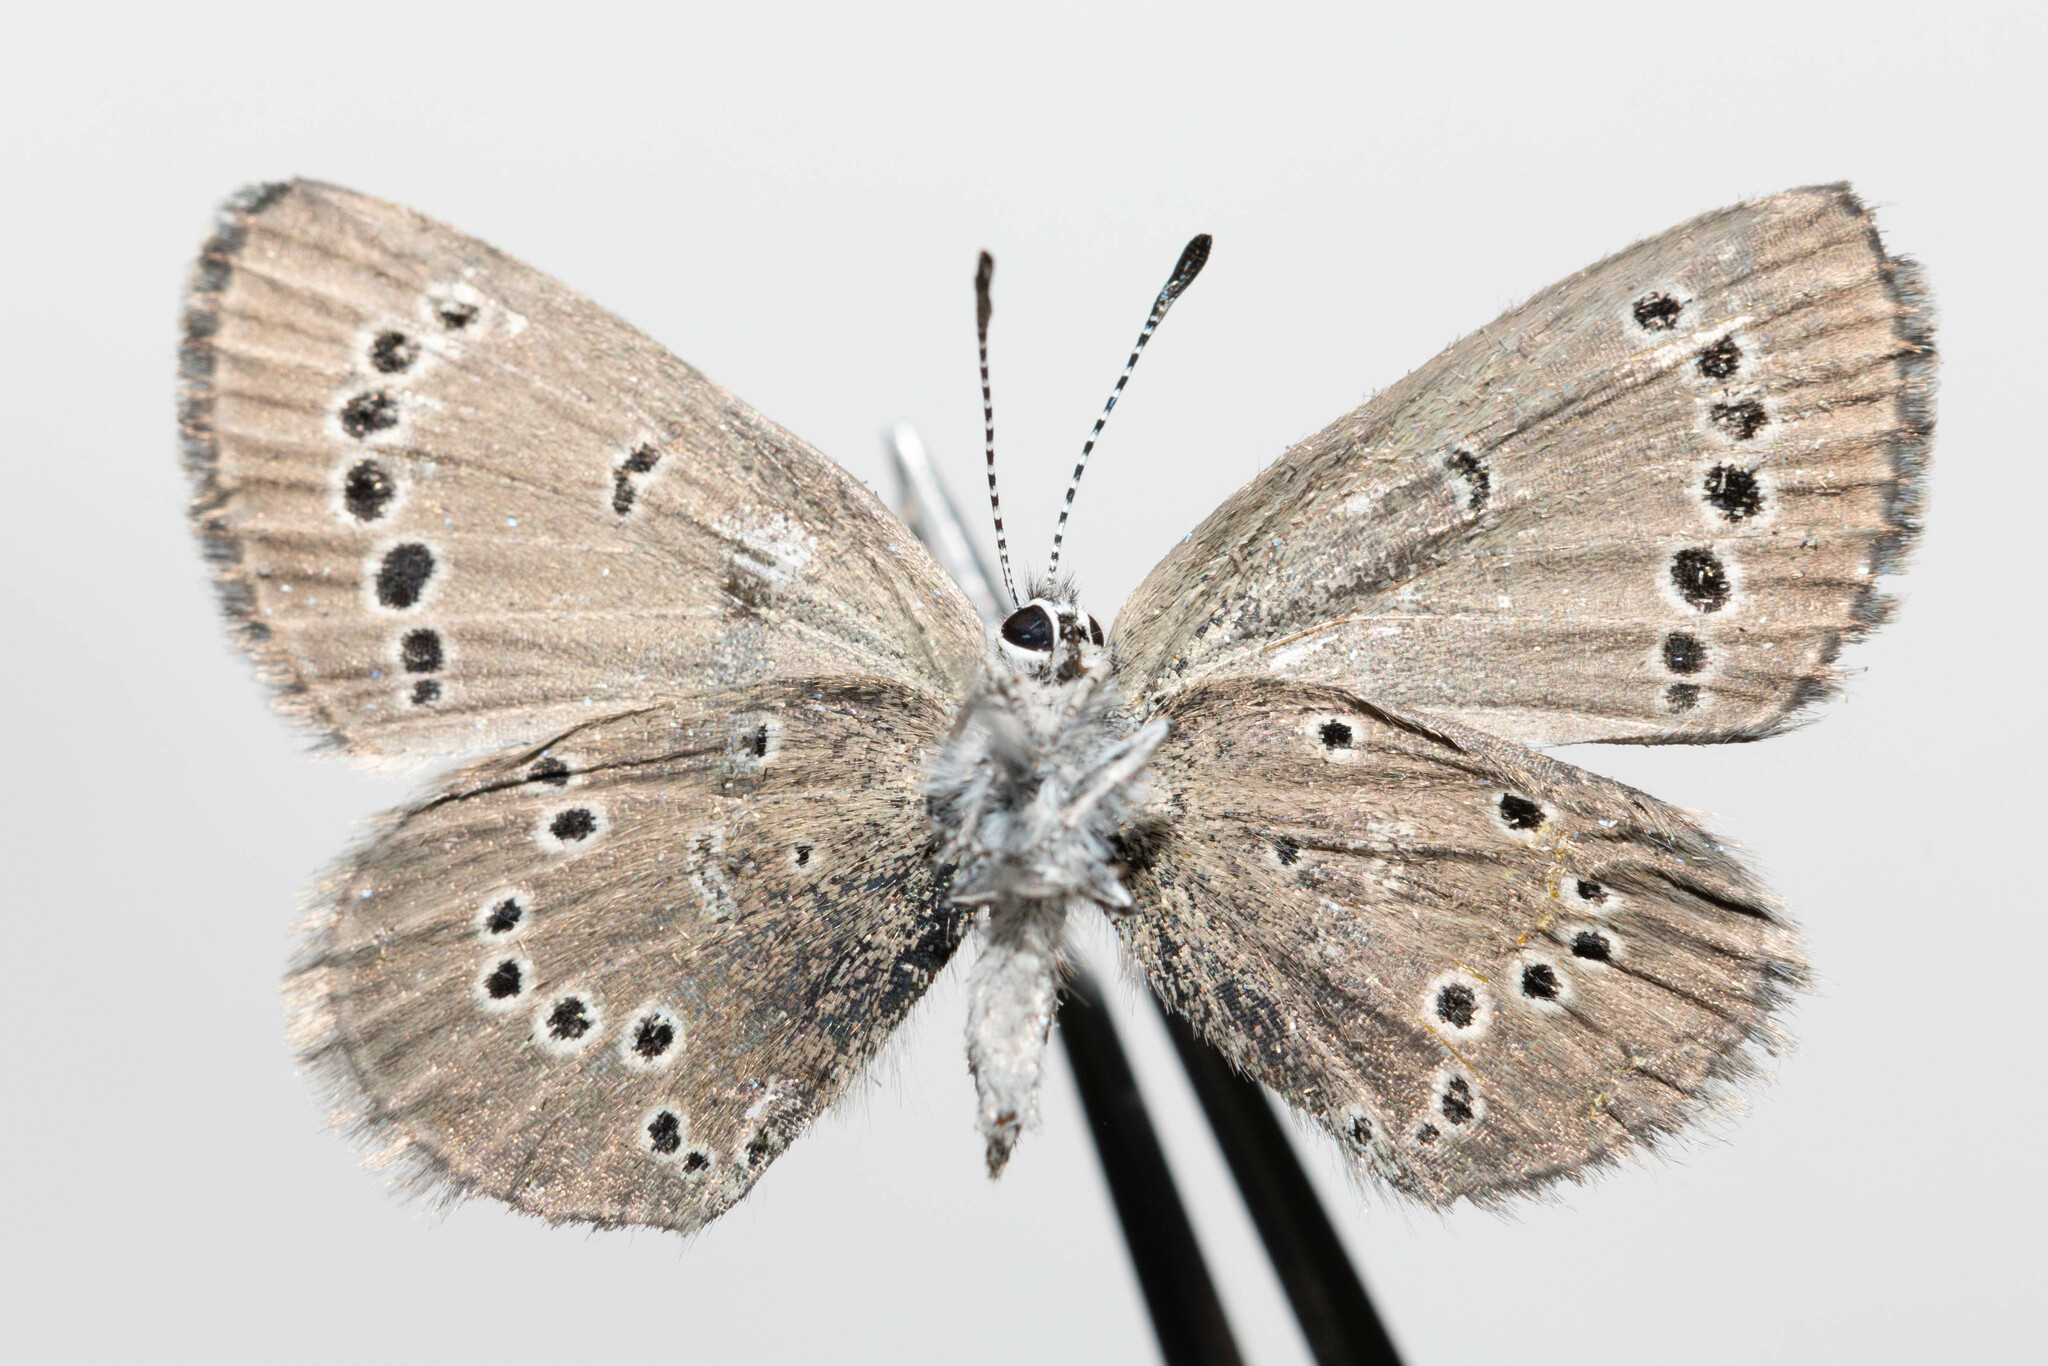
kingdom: Animalia
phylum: Arthropoda
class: Insecta
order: Lepidoptera
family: Lycaenidae
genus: Glaucopsyche
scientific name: Glaucopsyche lygdamus
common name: Silvery blue
